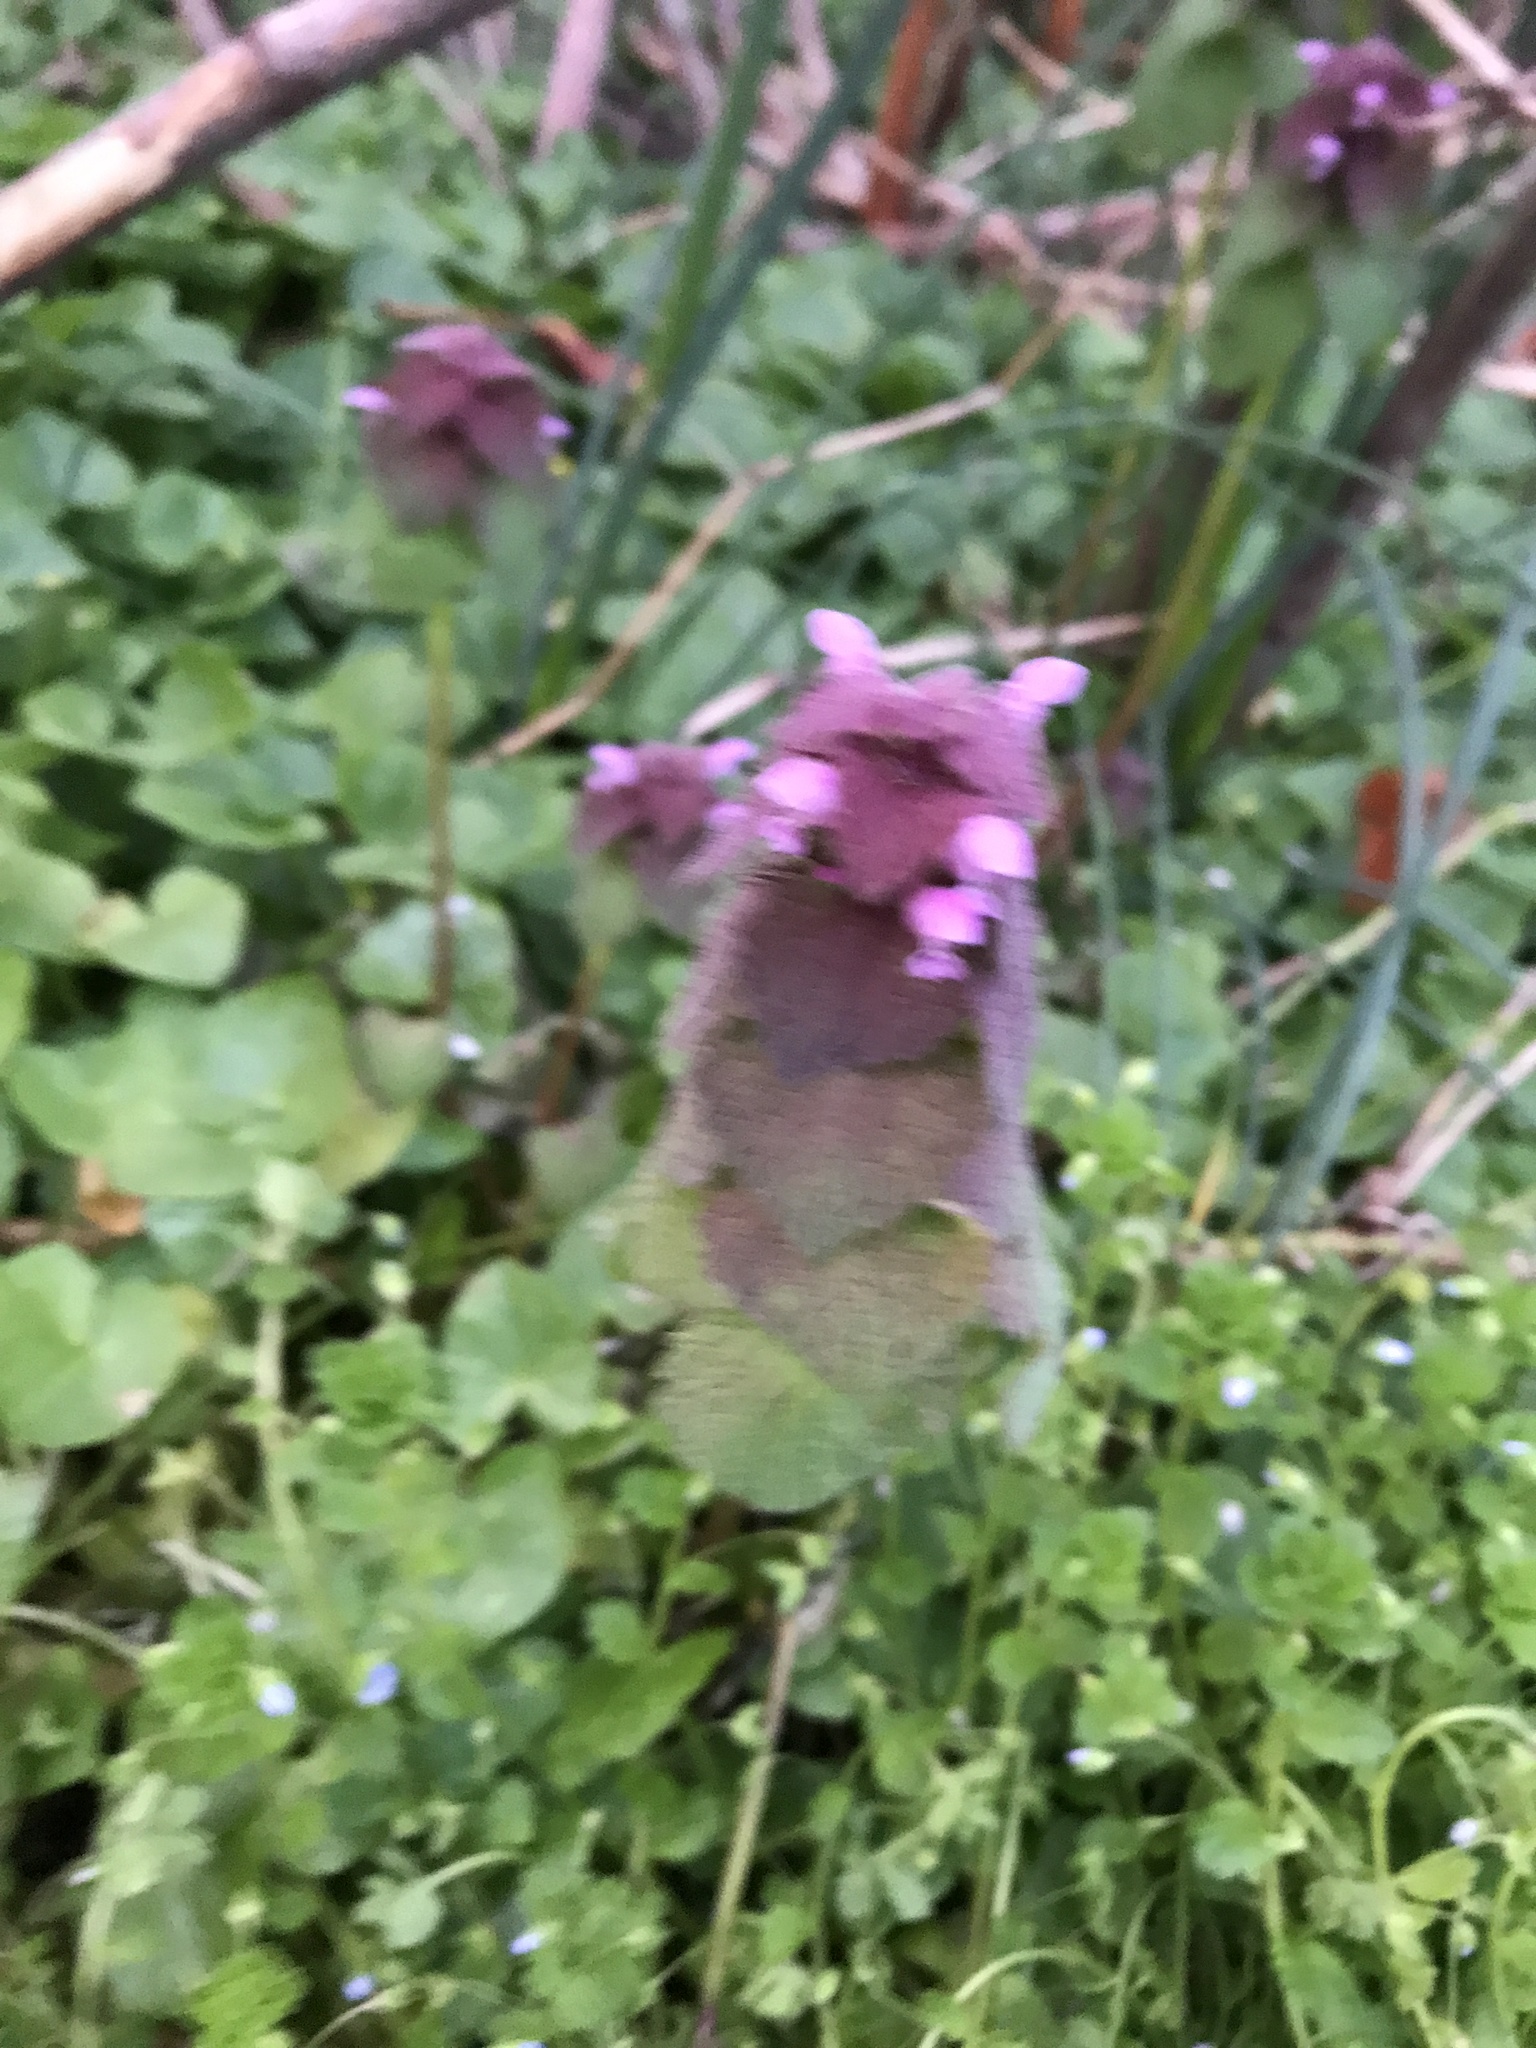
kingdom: Plantae
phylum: Tracheophyta
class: Magnoliopsida
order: Lamiales
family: Lamiaceae
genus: Lamium
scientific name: Lamium purpureum
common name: Red dead-nettle
